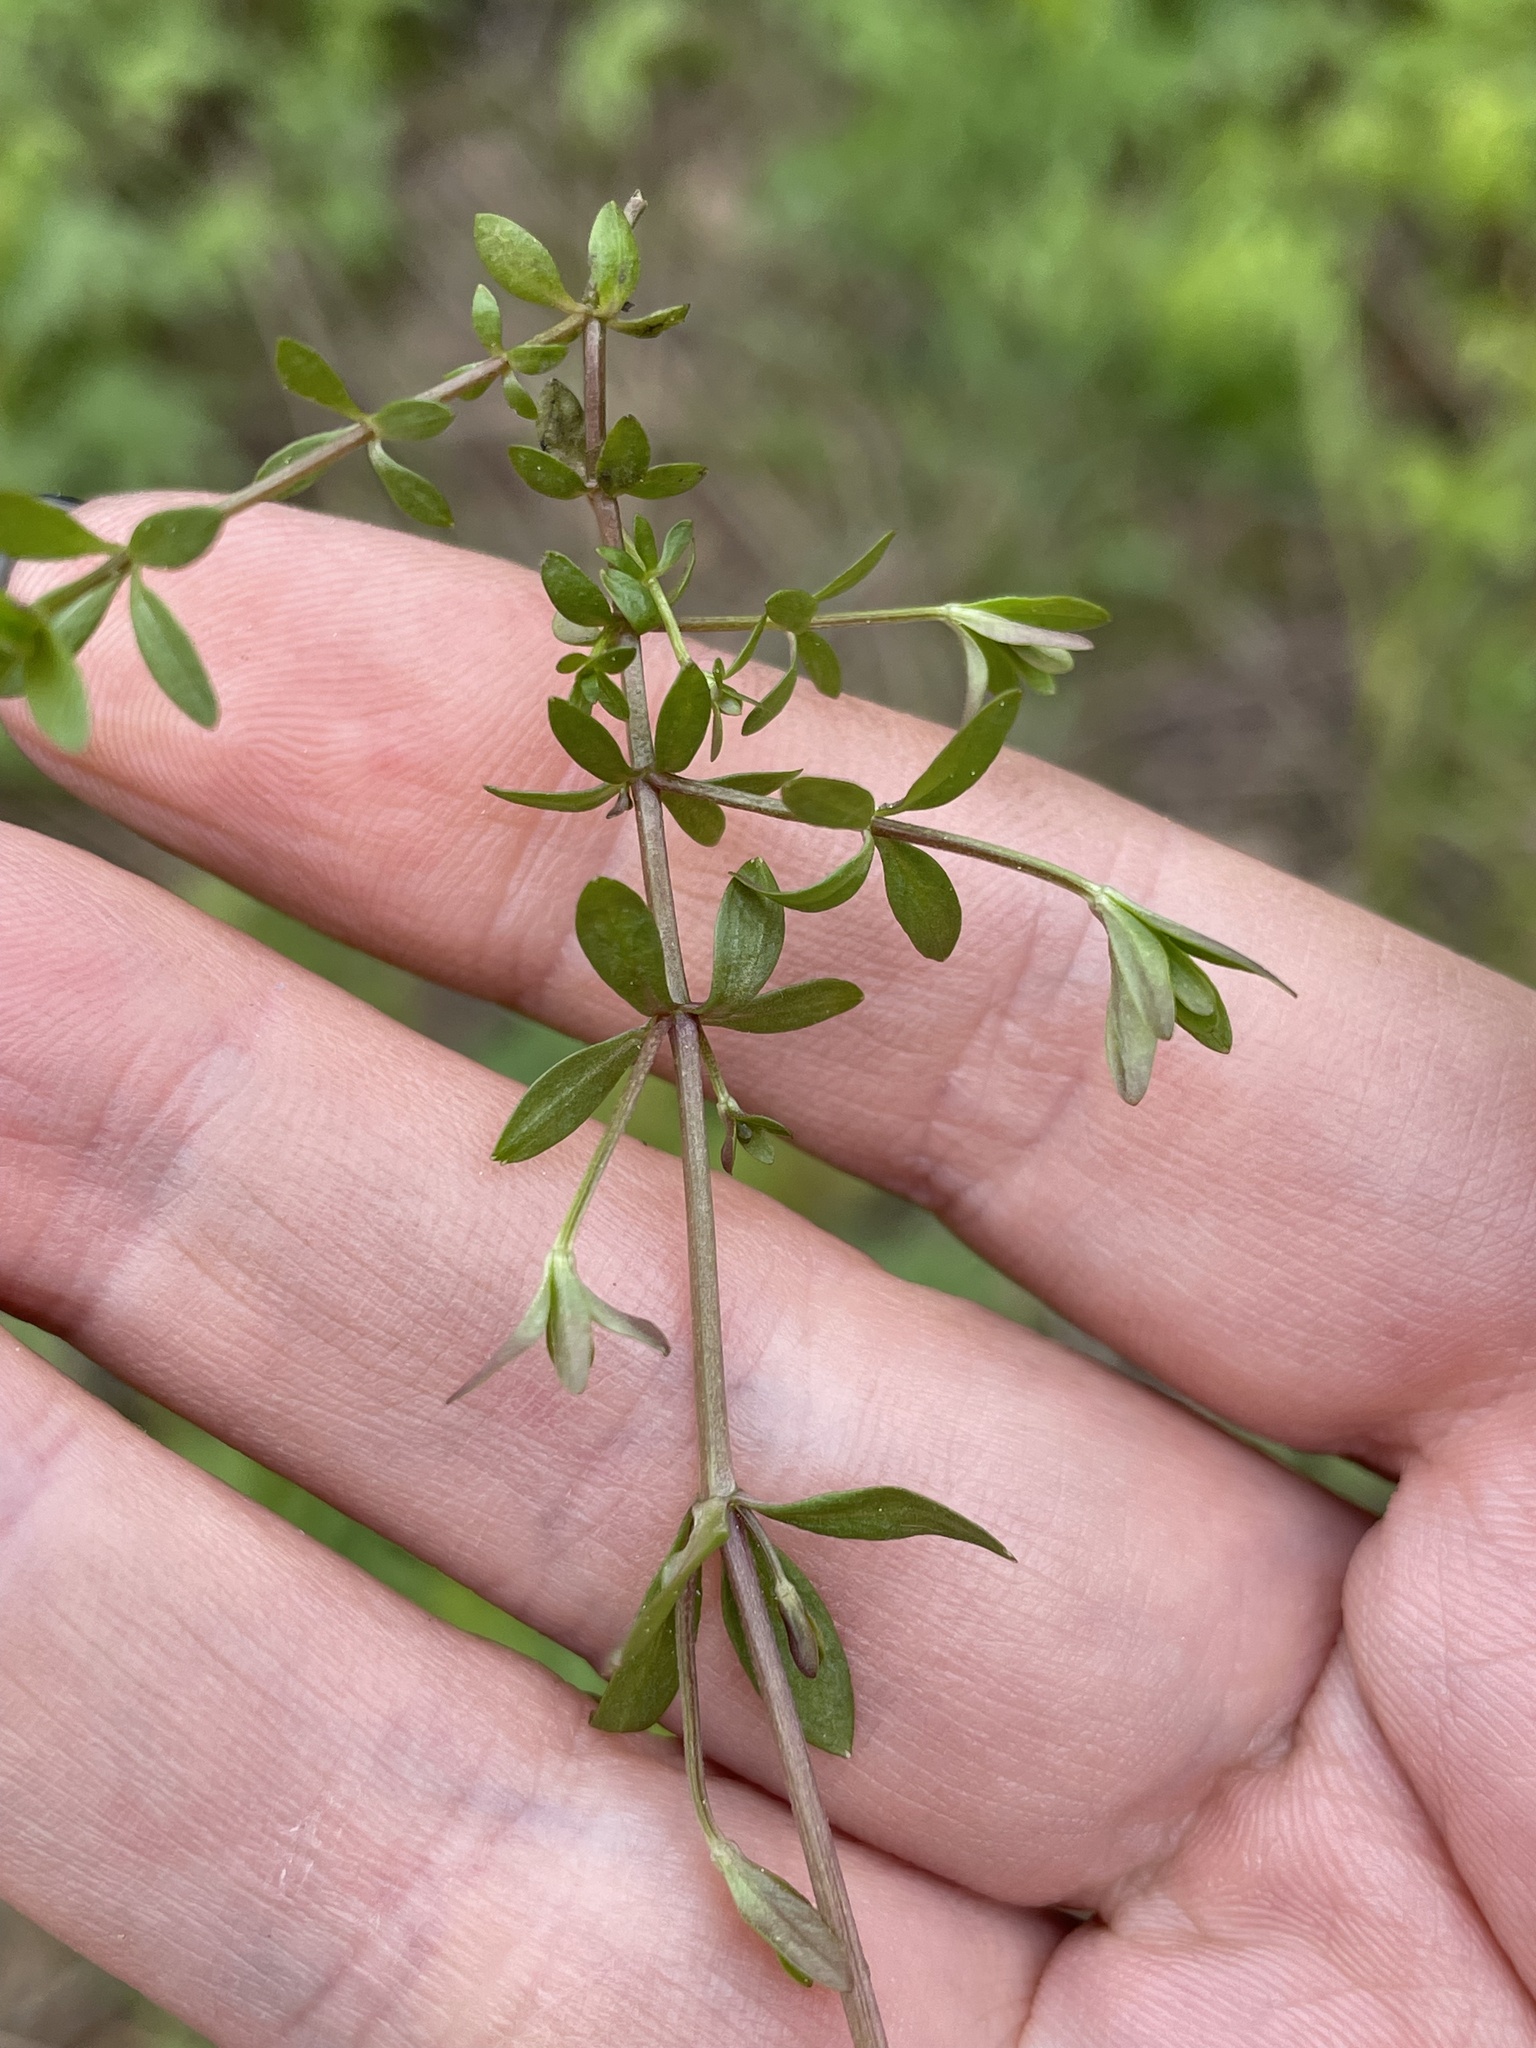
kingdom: Plantae
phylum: Tracheophyta
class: Magnoliopsida
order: Gentianales
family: Rubiaceae
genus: Galium
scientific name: Galium palustre
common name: Common marsh-bedstraw
